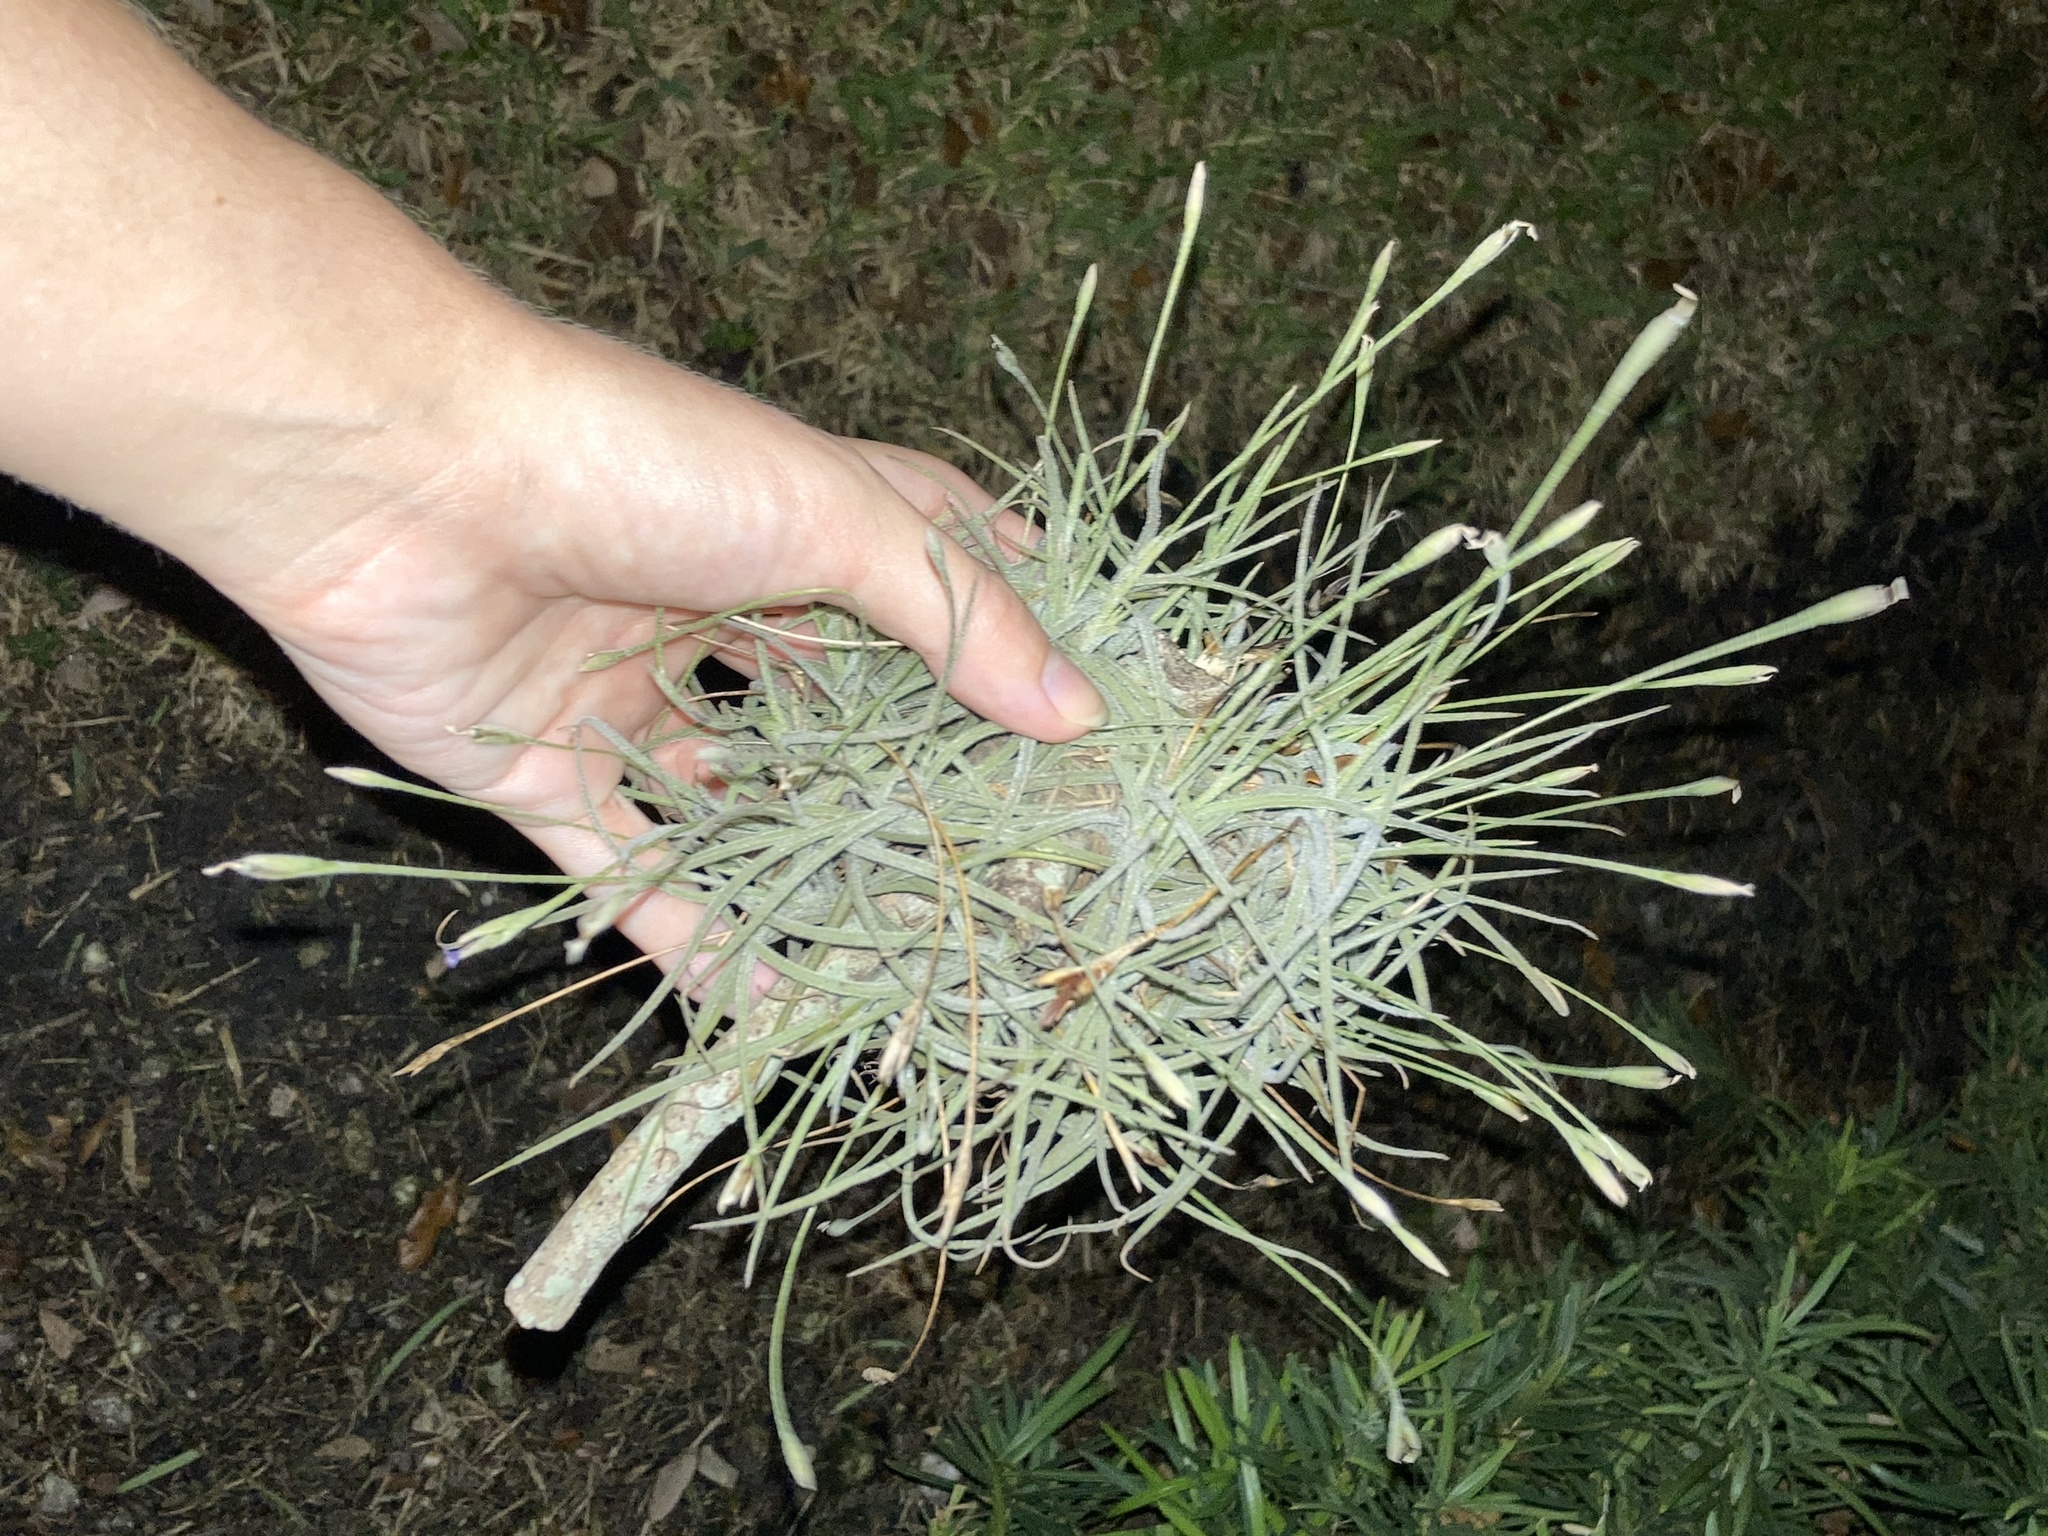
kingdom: Plantae
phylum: Tracheophyta
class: Liliopsida
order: Poales
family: Bromeliaceae
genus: Tillandsia
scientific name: Tillandsia recurvata
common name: Small ballmoss
